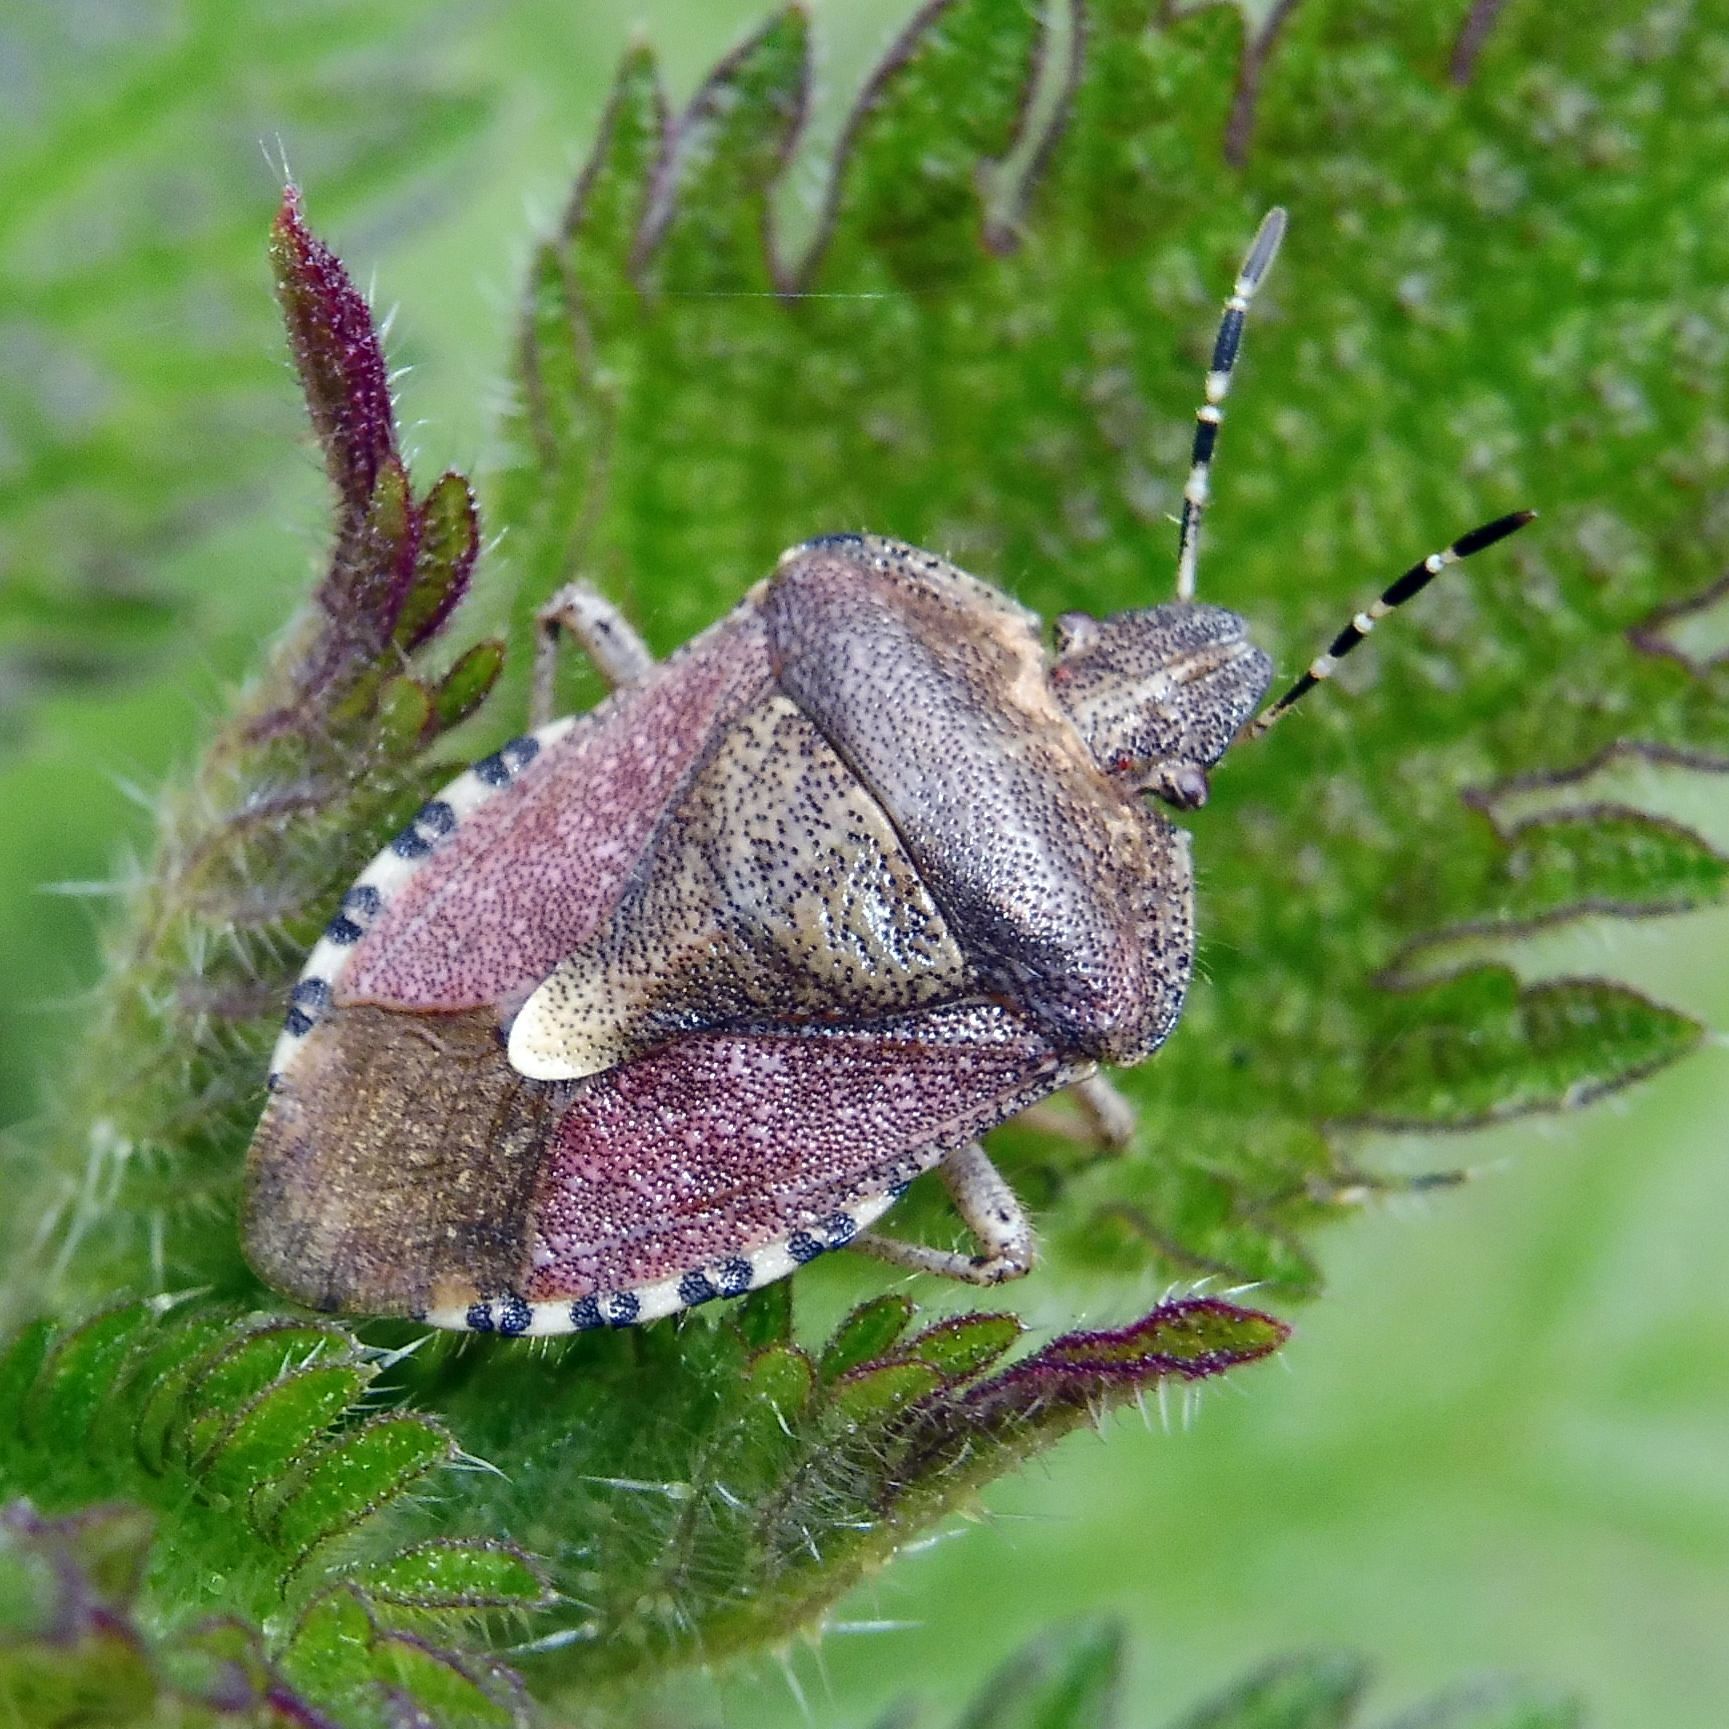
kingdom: Animalia
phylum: Arthropoda
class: Insecta
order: Hemiptera
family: Pentatomidae
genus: Dolycoris
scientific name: Dolycoris baccarum
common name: Sloe bug
